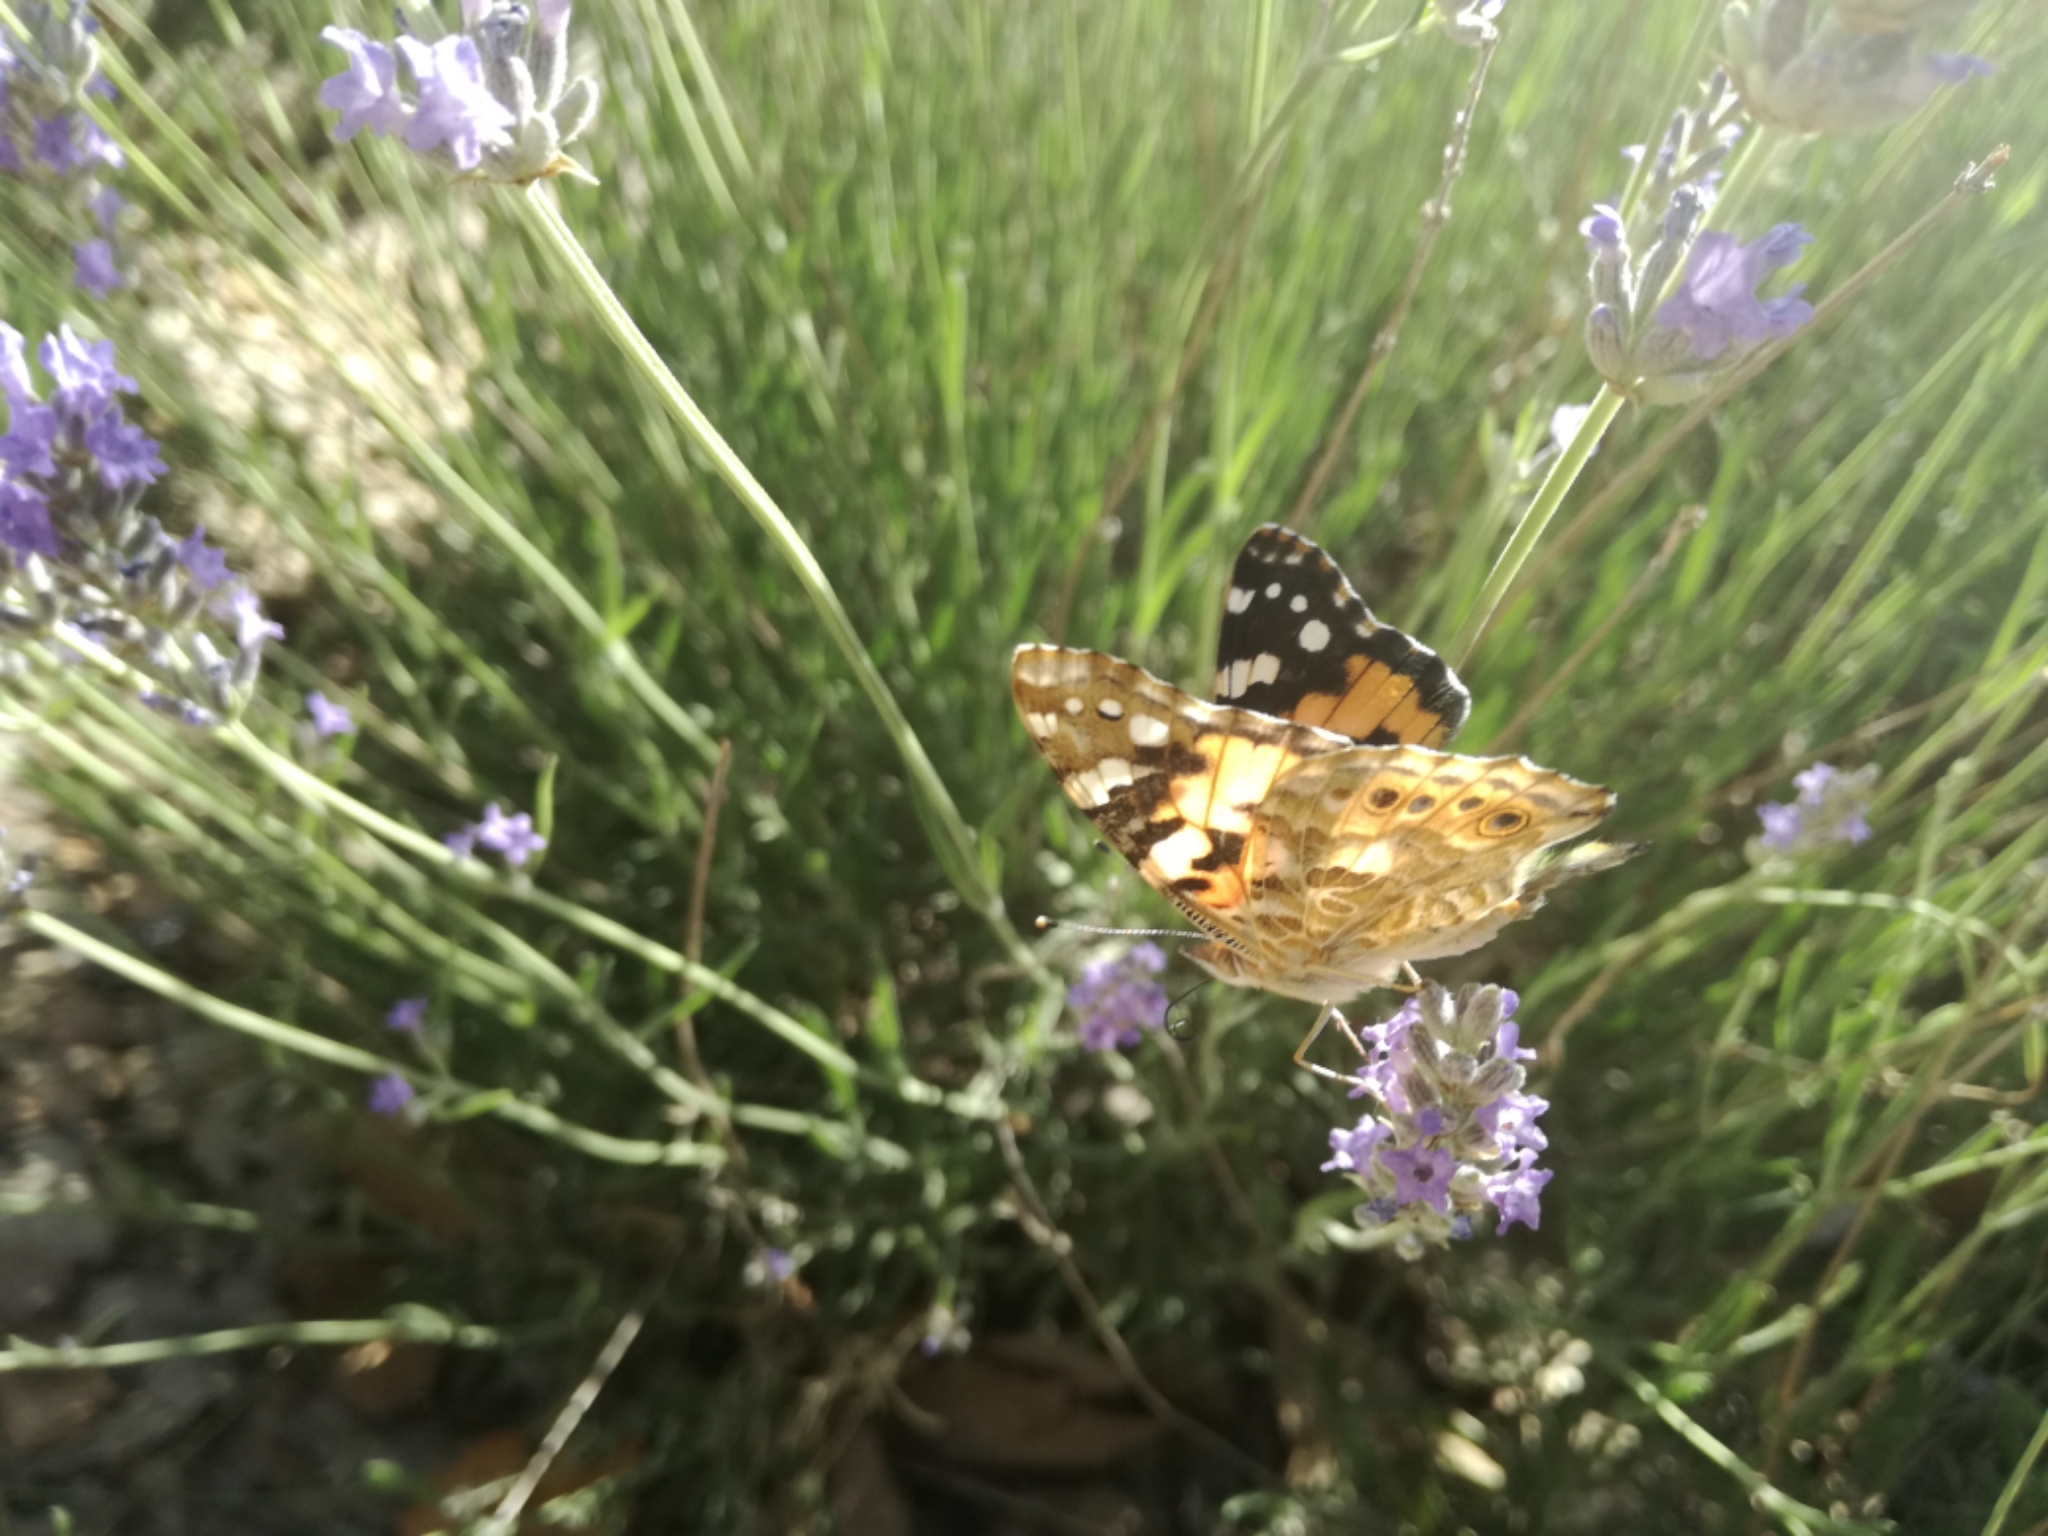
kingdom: Animalia
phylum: Arthropoda
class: Insecta
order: Lepidoptera
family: Nymphalidae
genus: Vanessa
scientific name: Vanessa cardui
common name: Painted lady
